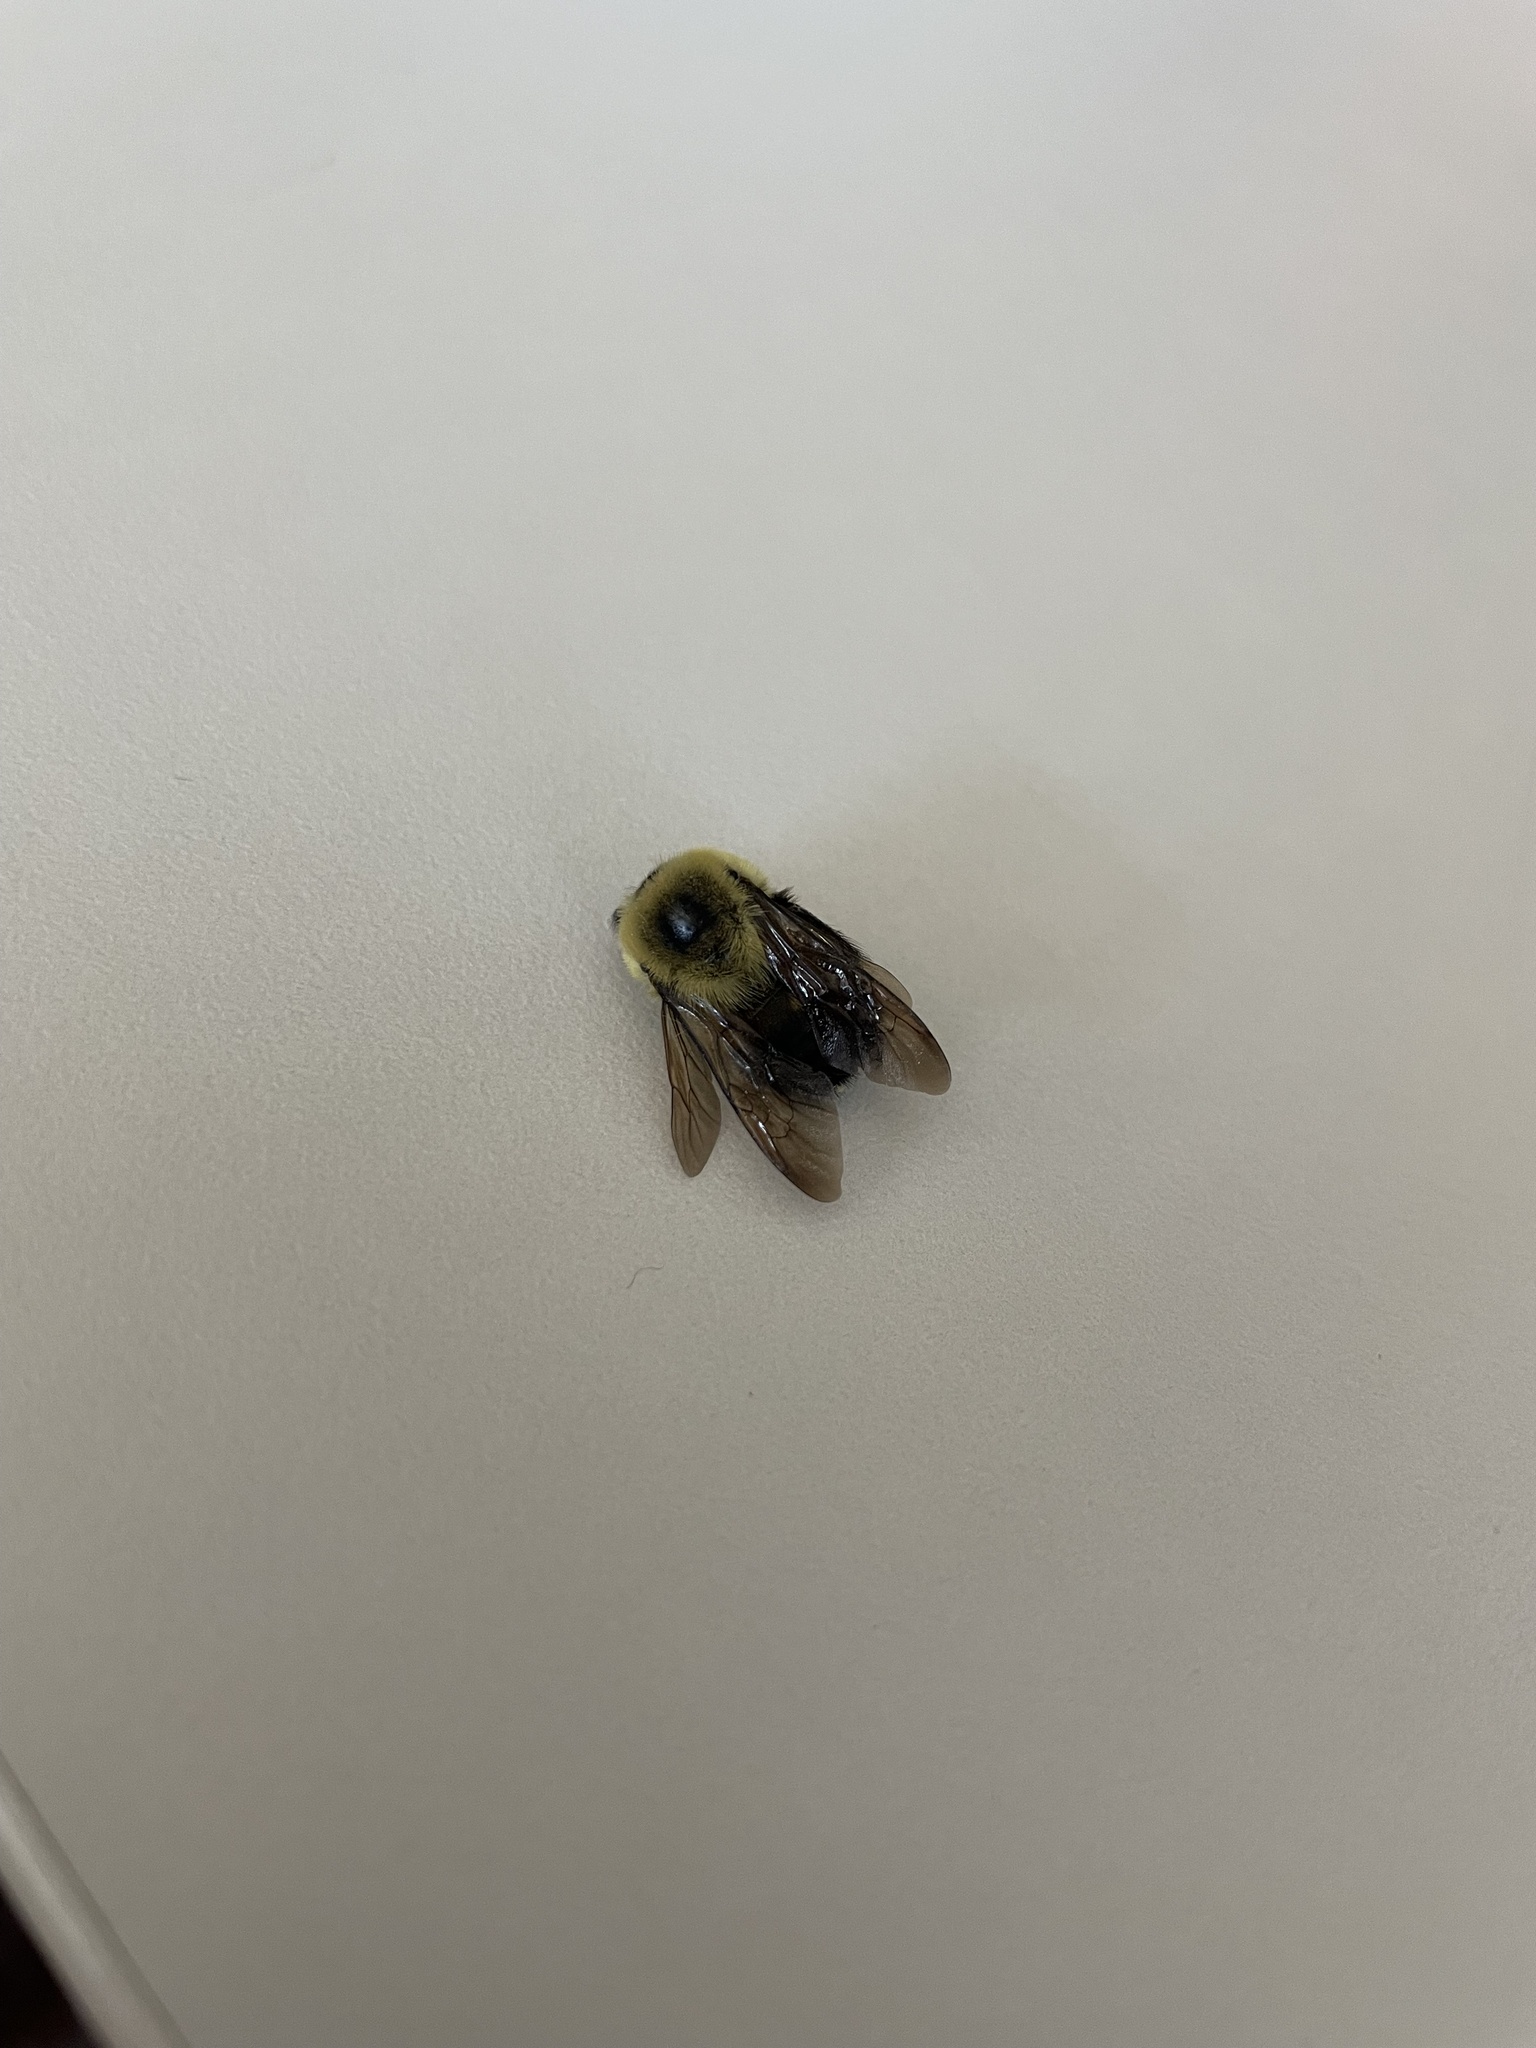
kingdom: Animalia
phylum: Arthropoda
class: Insecta
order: Hymenoptera
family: Apidae
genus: Bombus
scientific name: Bombus griseocollis
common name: Brown-belted bumble bee
